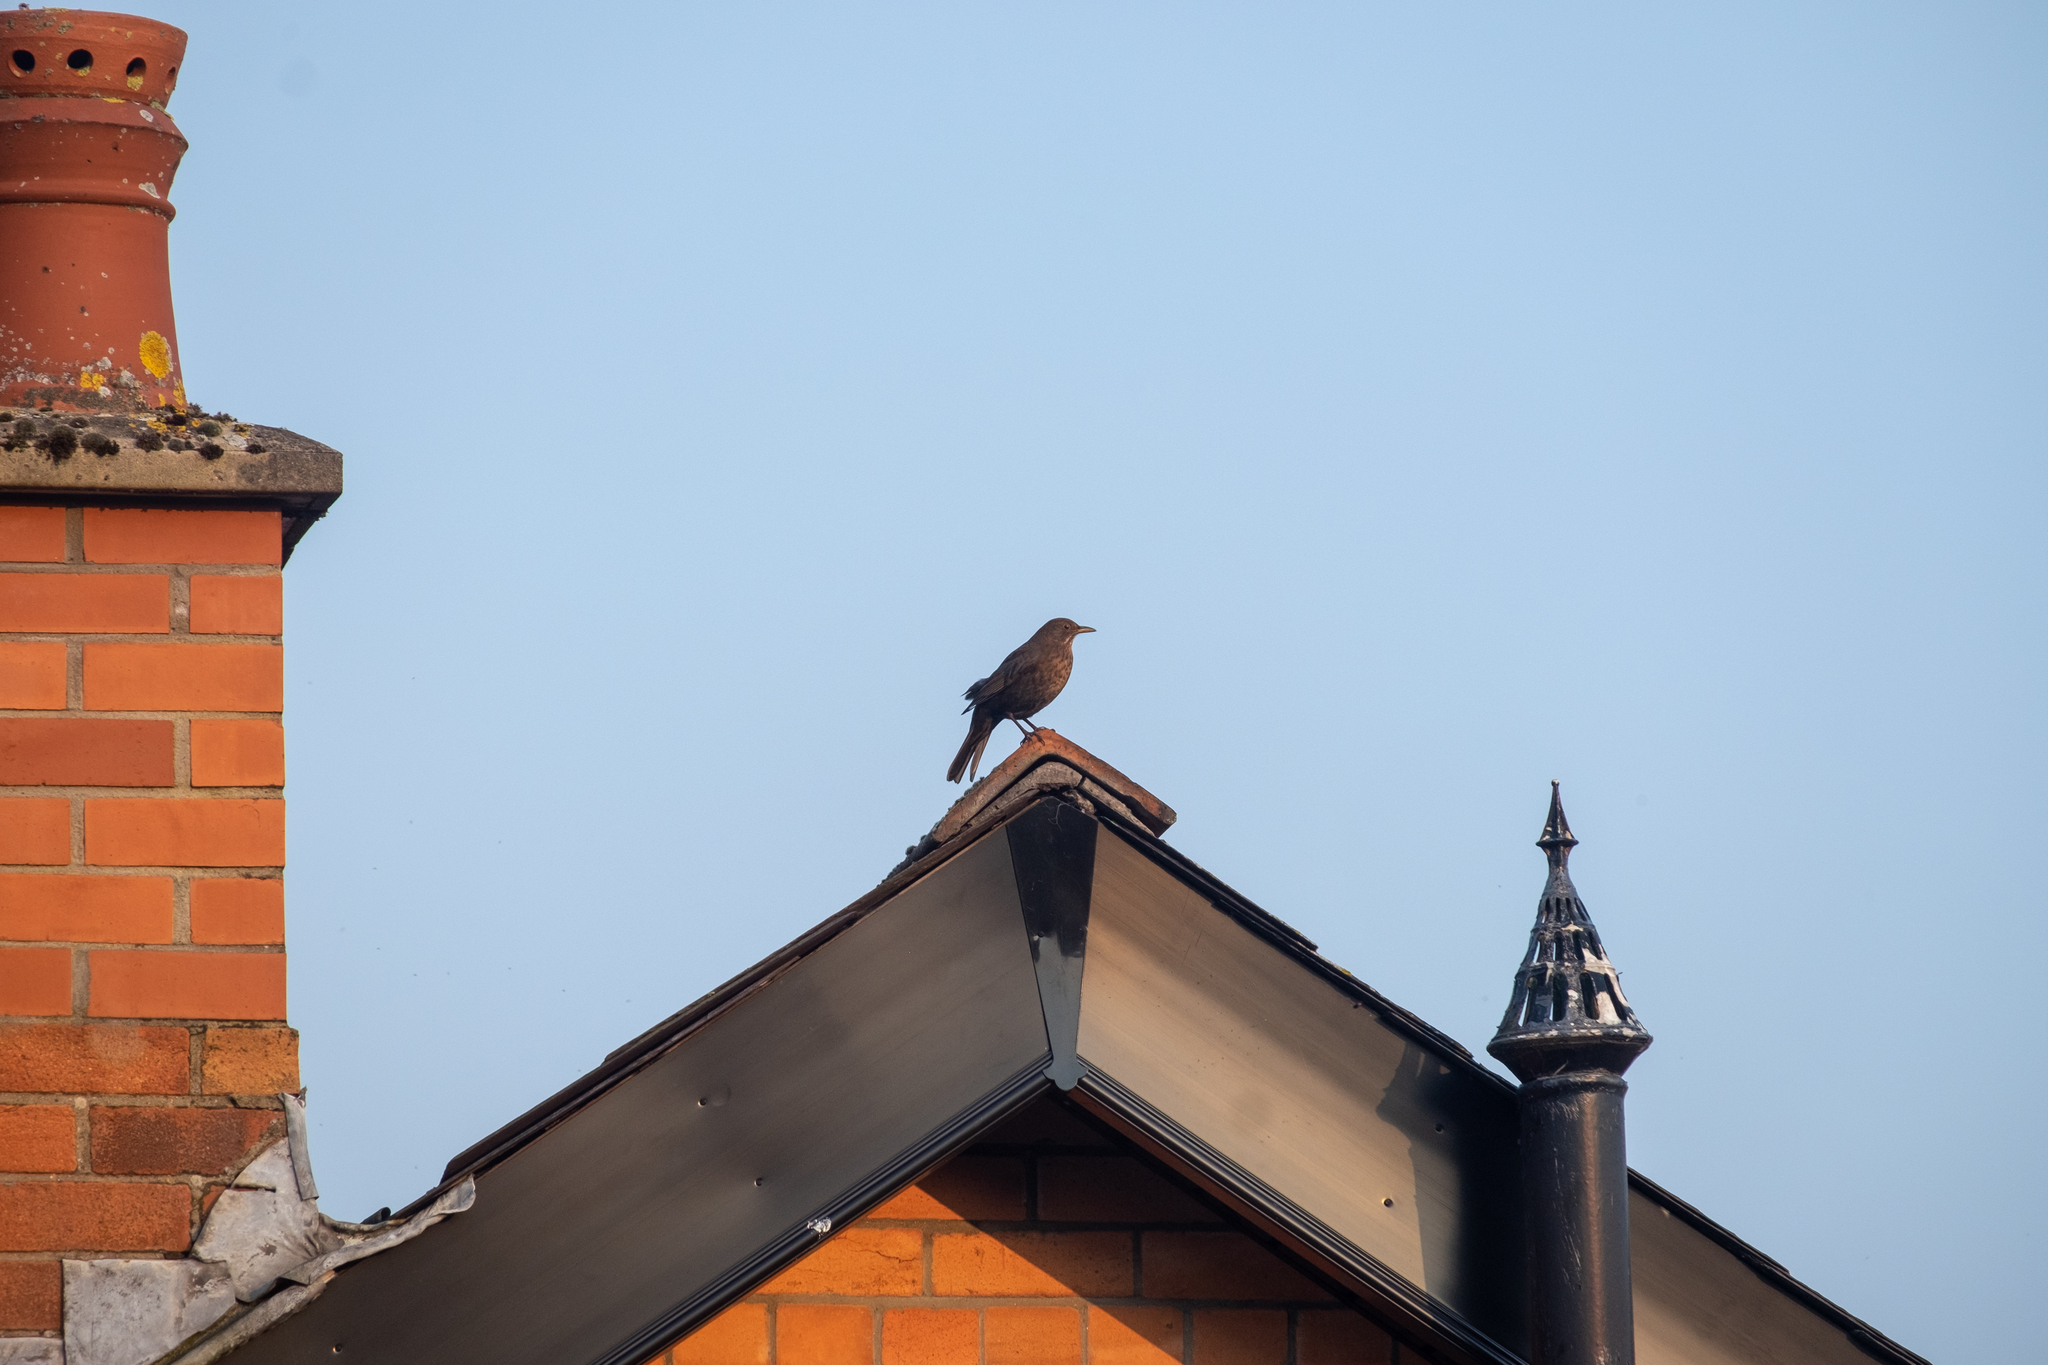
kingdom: Animalia
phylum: Chordata
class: Aves
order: Passeriformes
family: Turdidae
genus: Turdus
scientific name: Turdus merula
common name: Common blackbird
